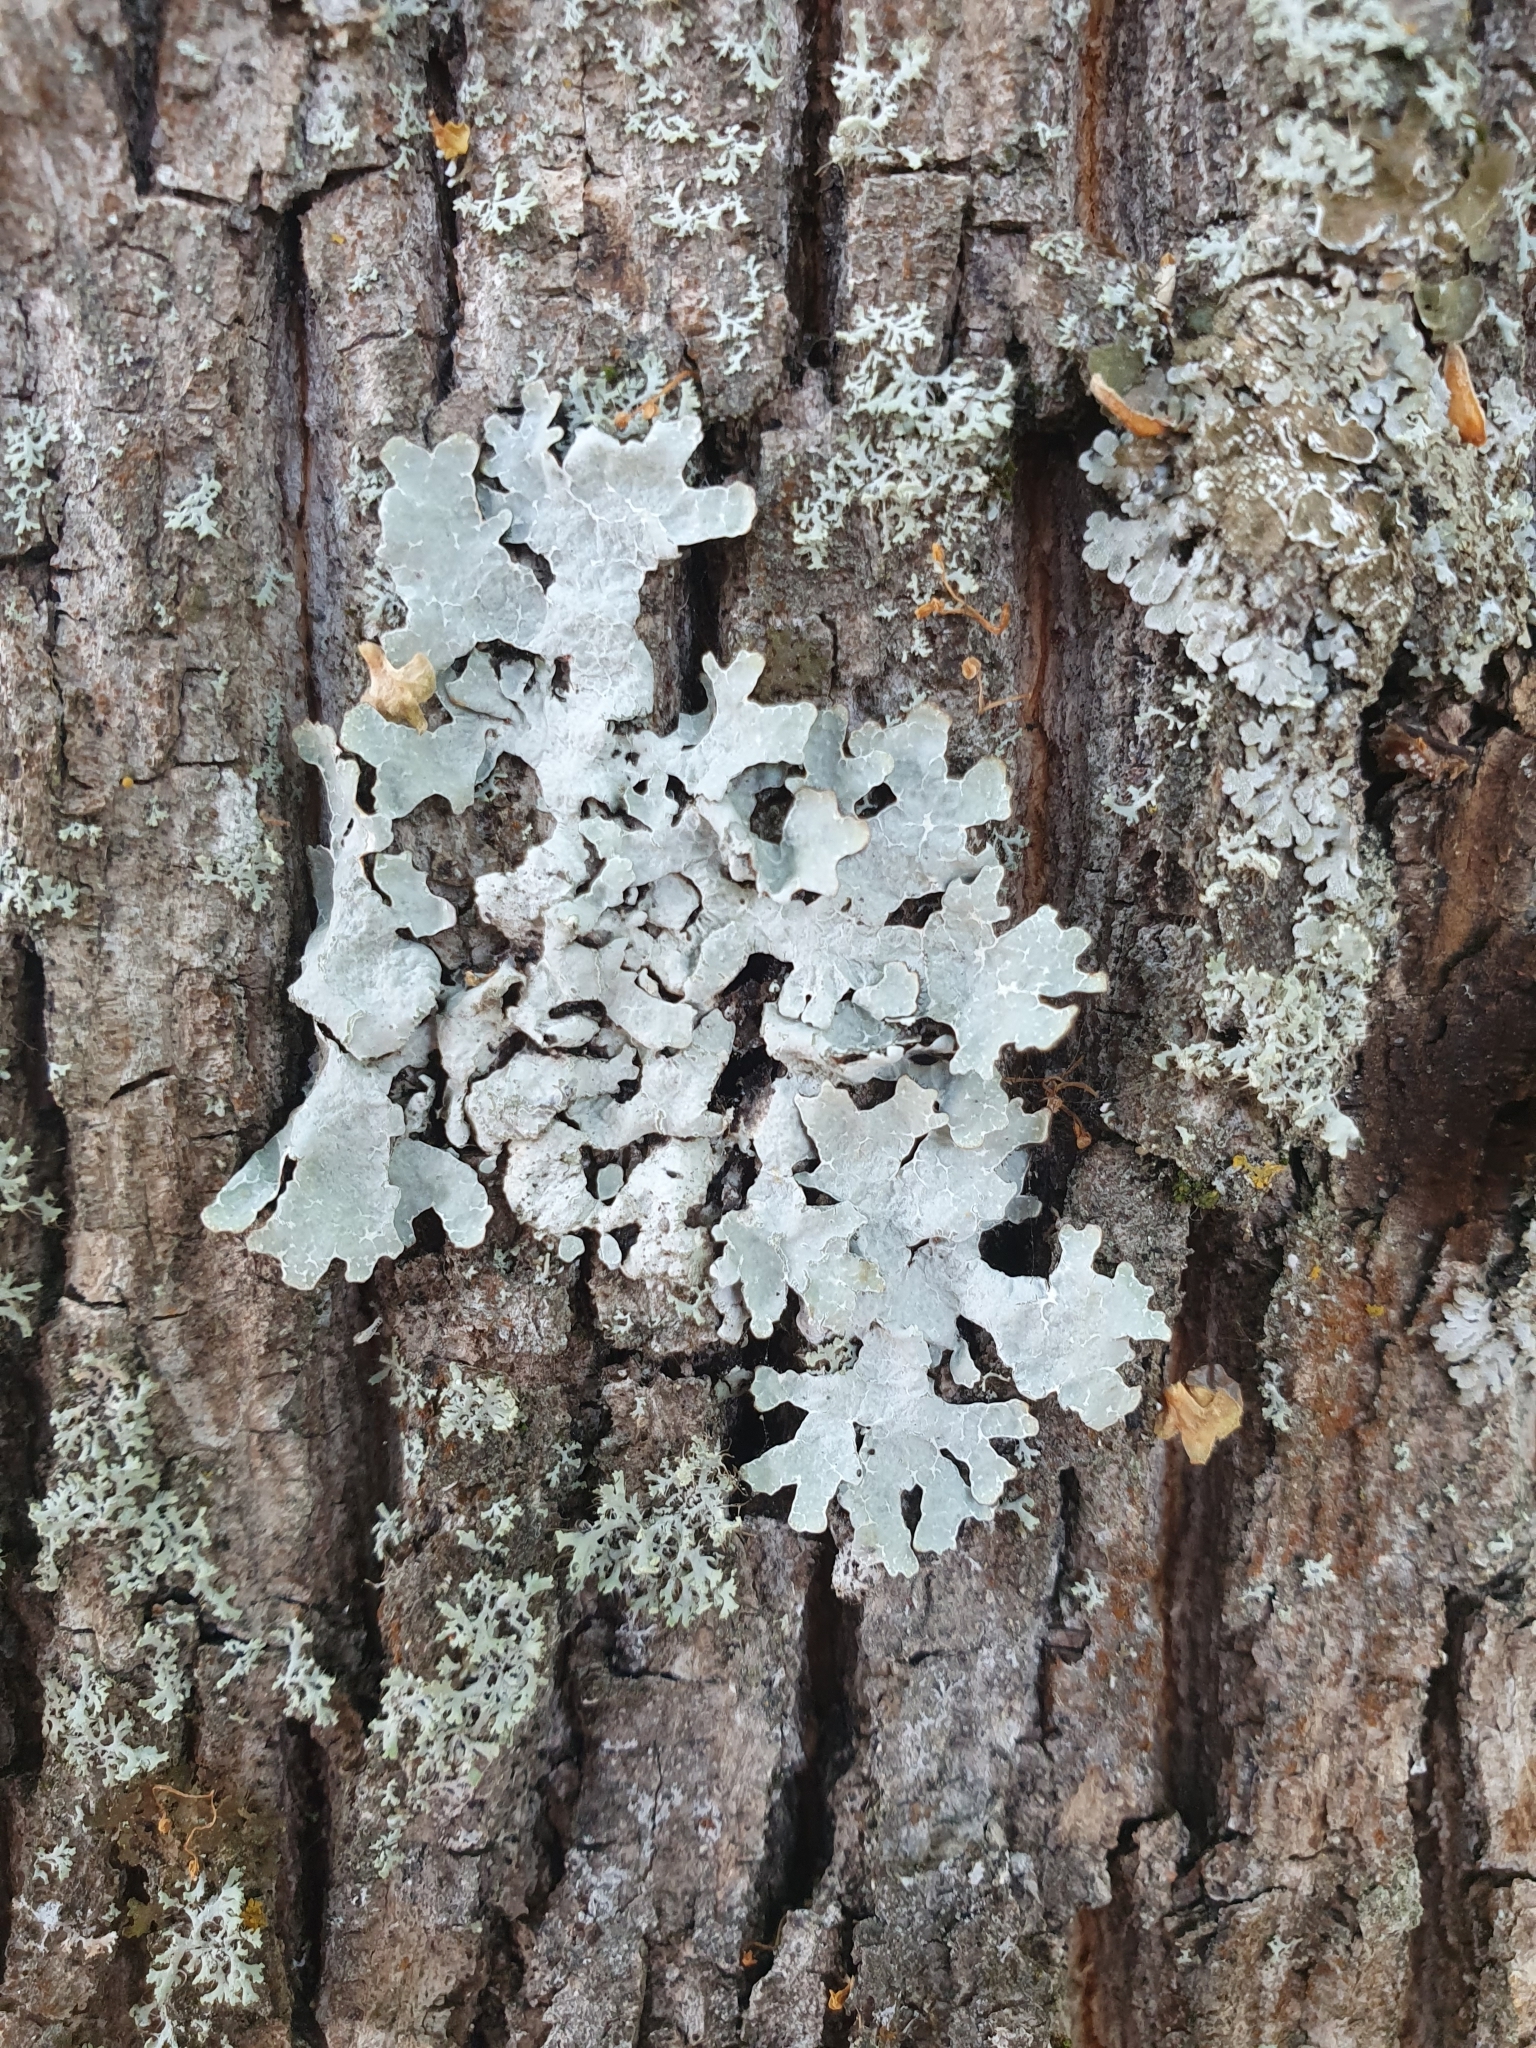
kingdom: Fungi
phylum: Ascomycota
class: Lecanoromycetes
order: Lecanorales
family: Parmeliaceae
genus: Parmelia
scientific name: Parmelia sulcata
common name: Netted shield lichen
